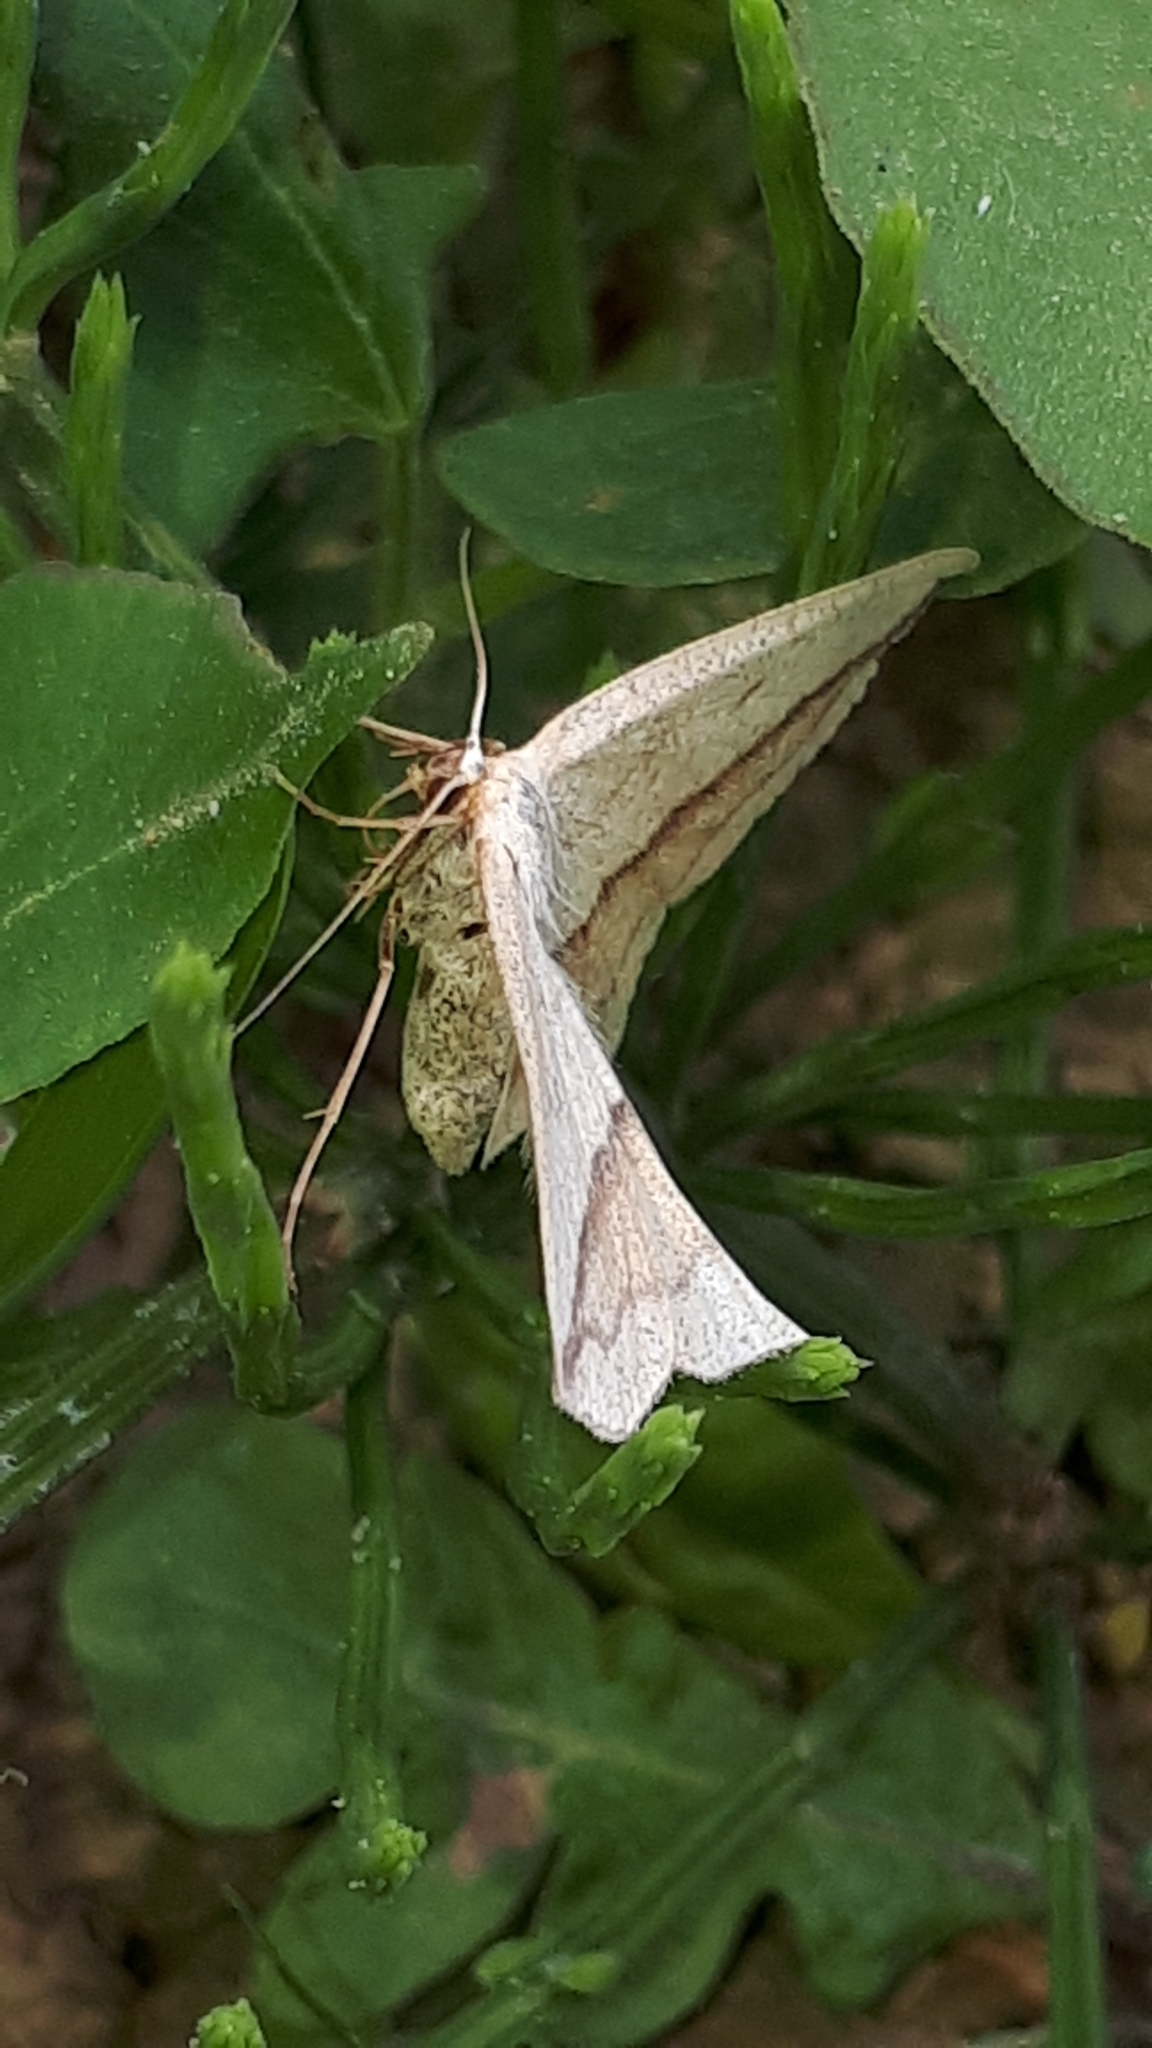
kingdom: Animalia
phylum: Arthropoda
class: Insecta
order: Lepidoptera
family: Geometridae
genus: Timandra
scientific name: Timandra comae
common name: Blood-vein
